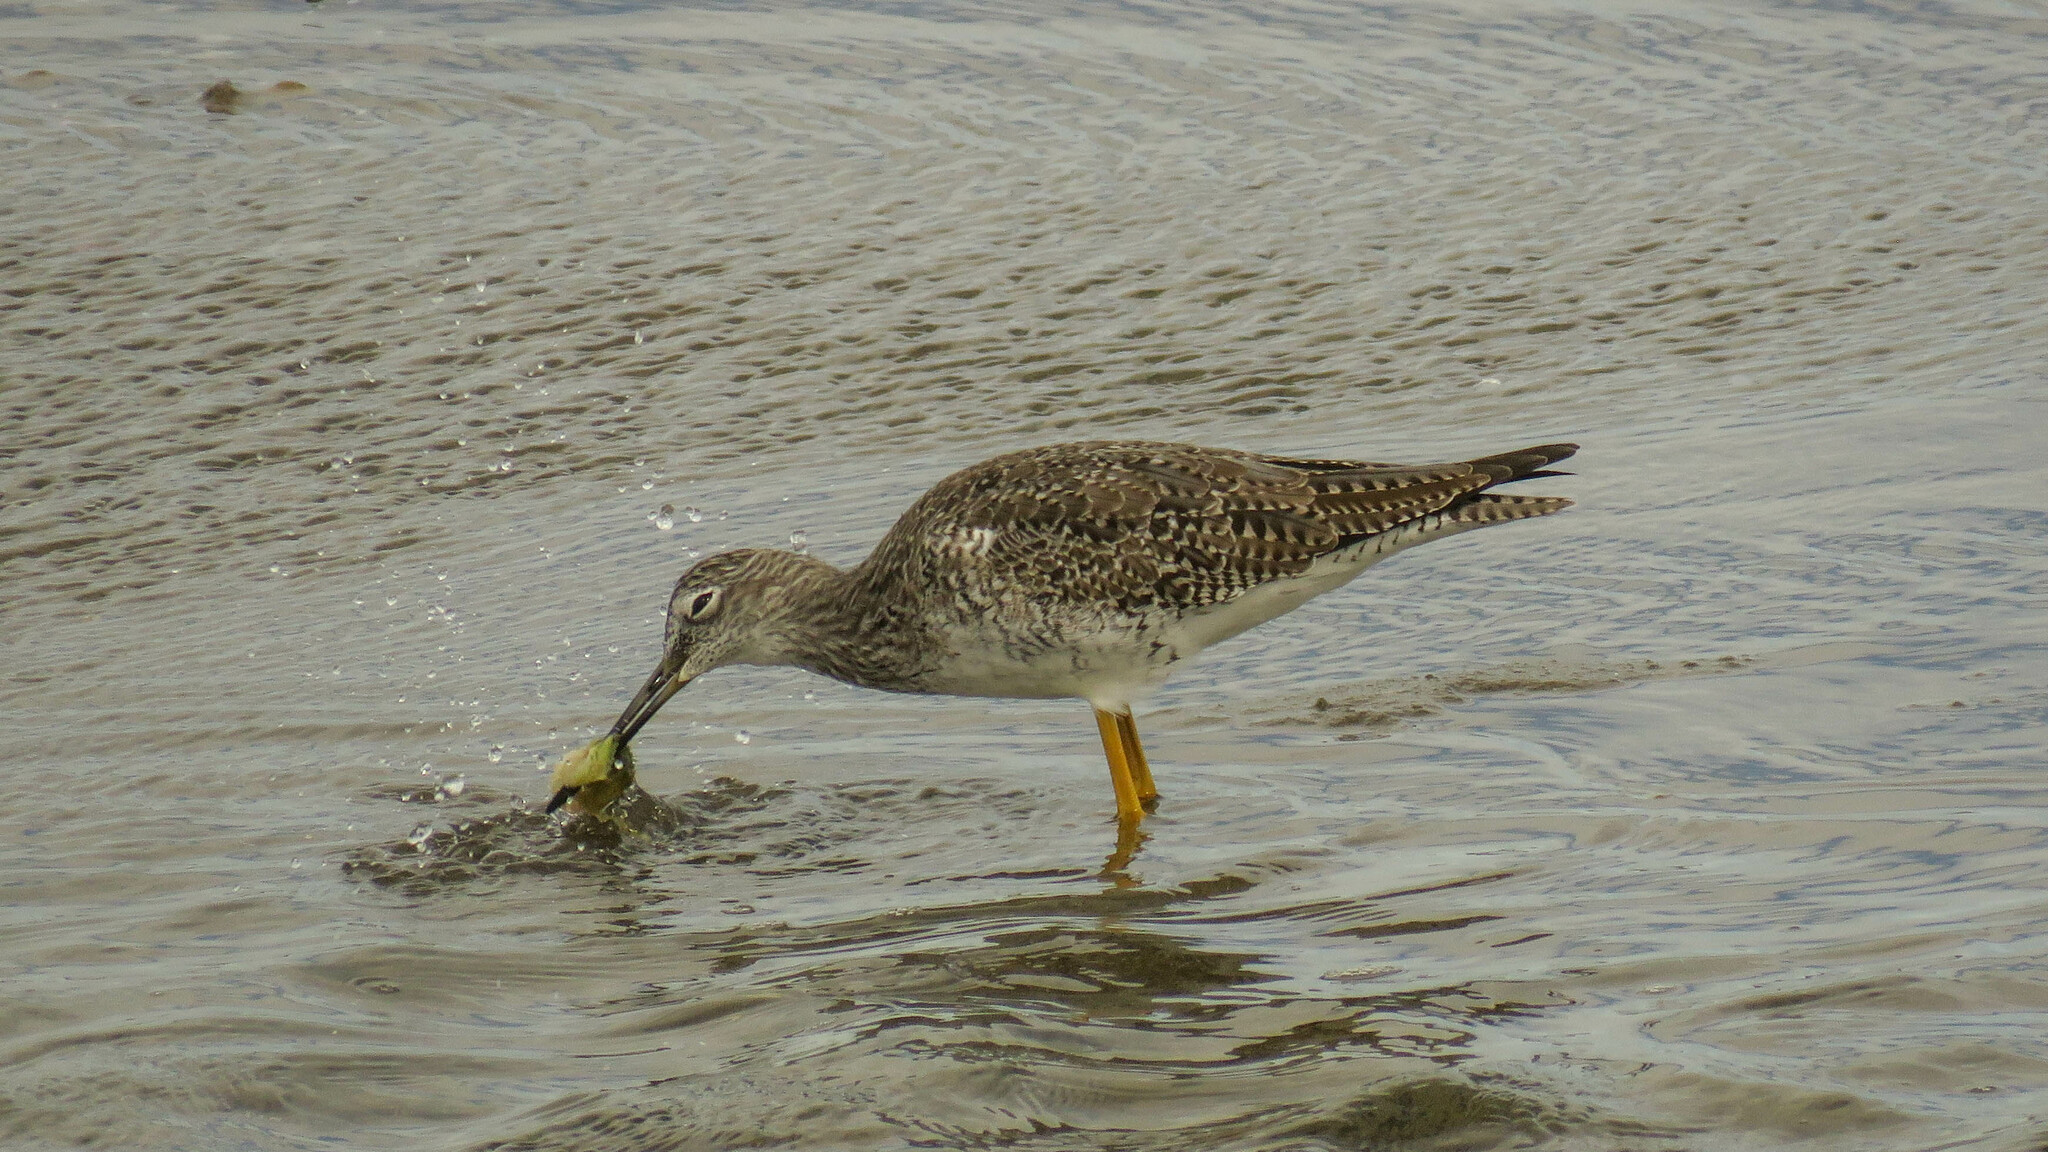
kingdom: Animalia
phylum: Chordata
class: Aves
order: Charadriiformes
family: Scolopacidae
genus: Tringa
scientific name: Tringa melanoleuca
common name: Greater yellowlegs
